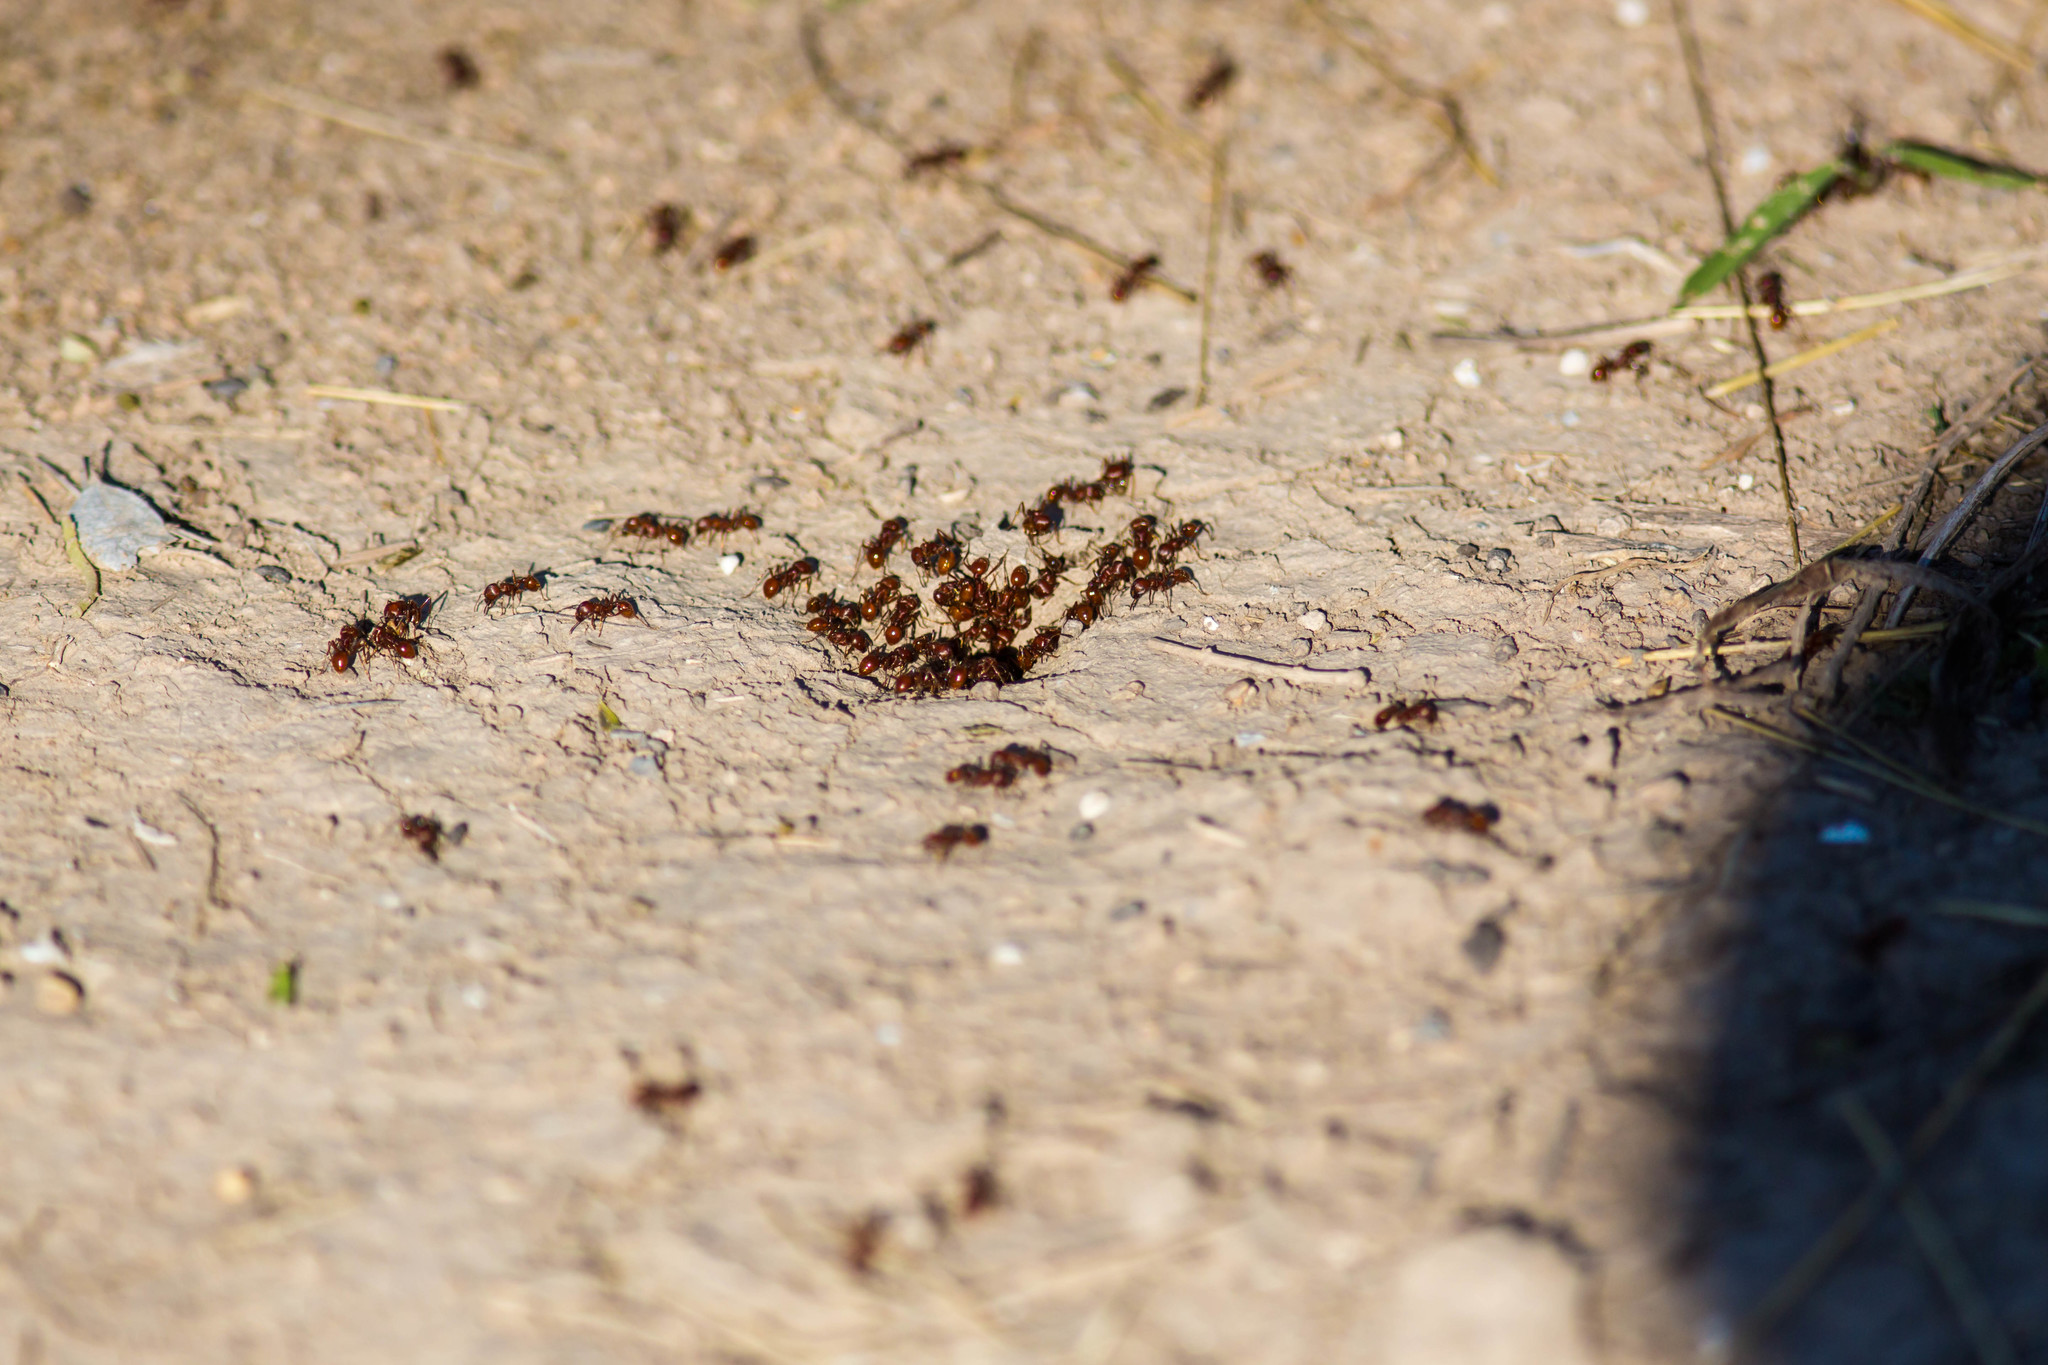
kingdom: Animalia
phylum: Arthropoda
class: Insecta
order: Hymenoptera
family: Formicidae
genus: Pogonomyrmex
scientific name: Pogonomyrmex barbatus
